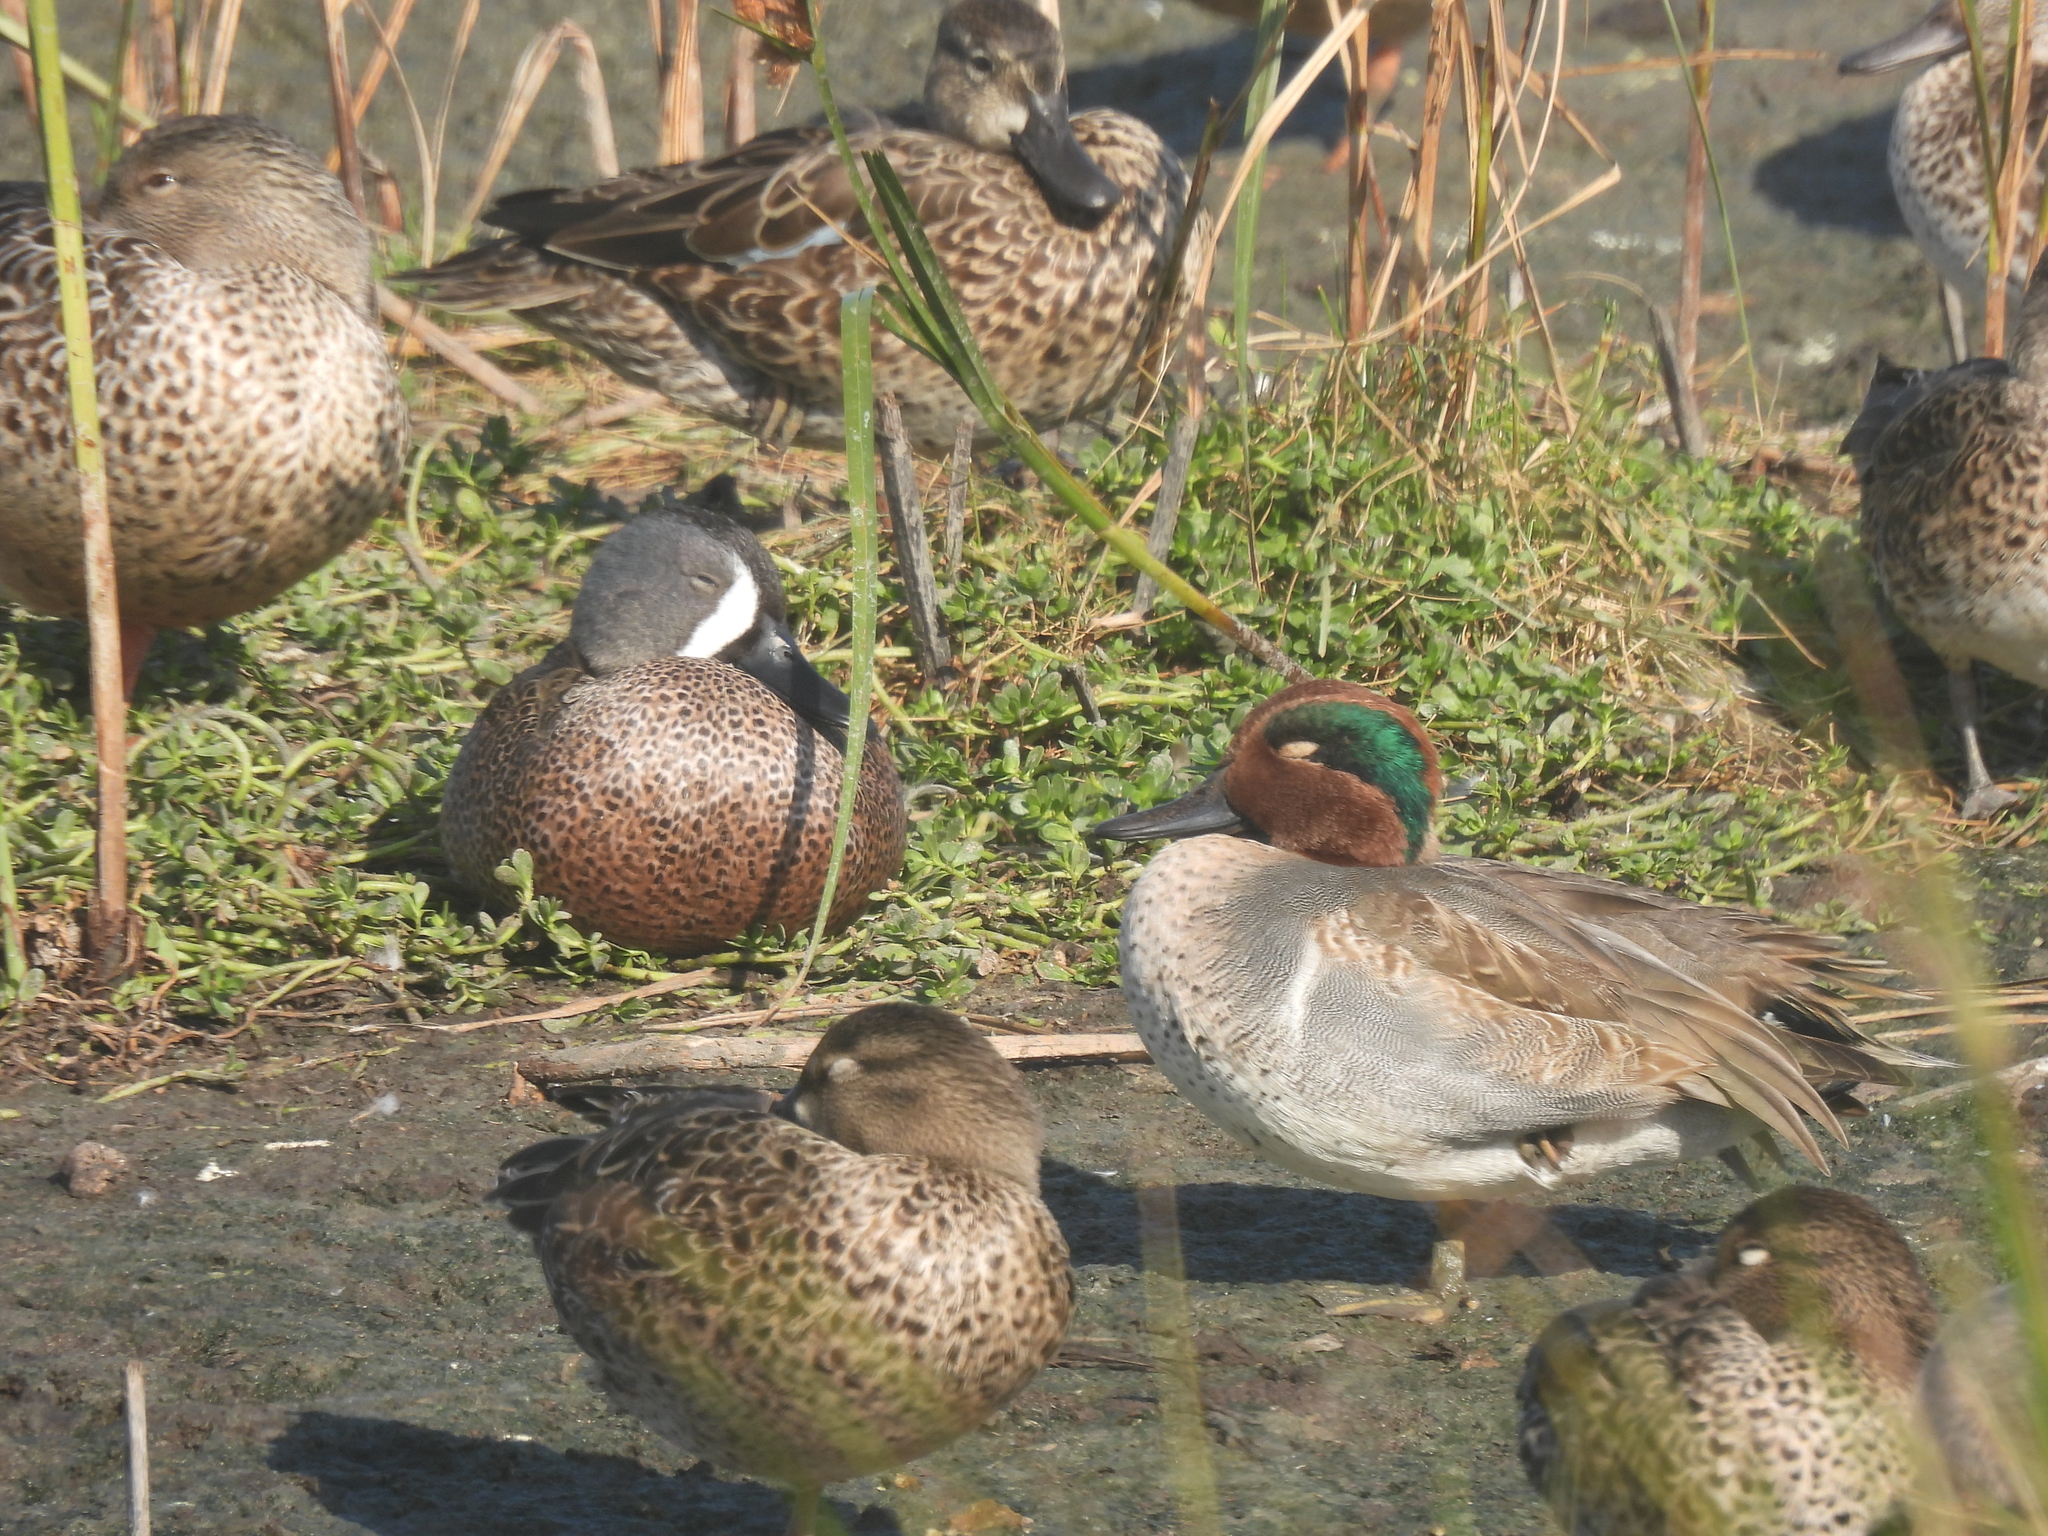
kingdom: Animalia
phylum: Chordata
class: Aves
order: Anseriformes
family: Anatidae
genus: Spatula
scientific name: Spatula discors
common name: Blue-winged teal
